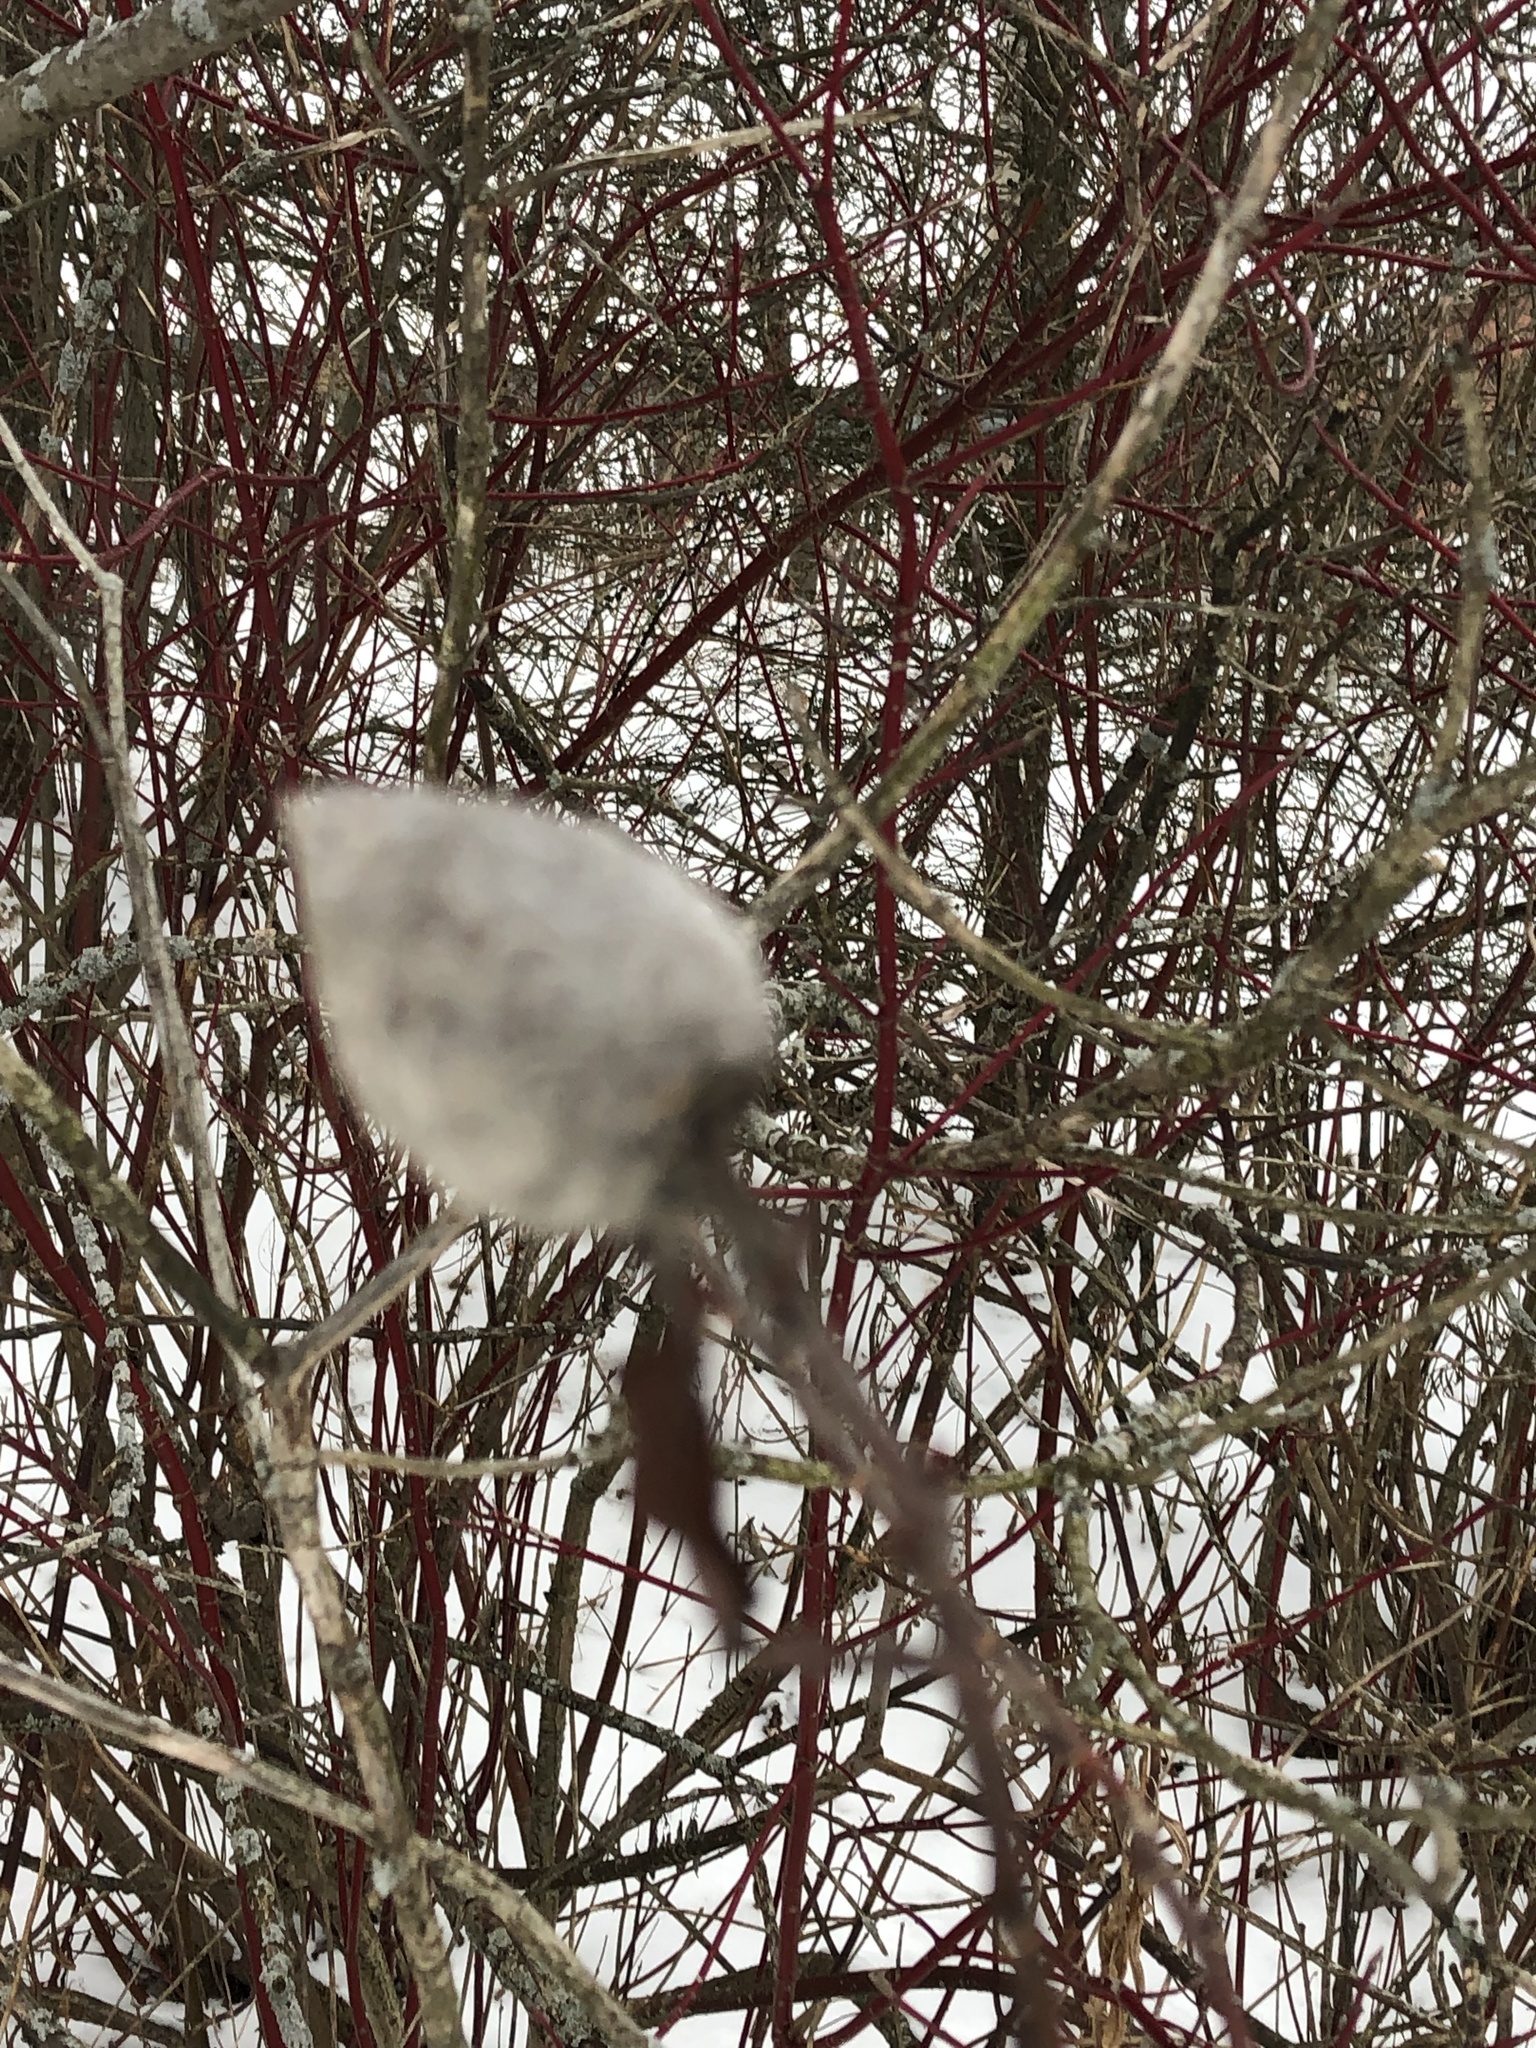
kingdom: Animalia
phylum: Arthropoda
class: Insecta
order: Diptera
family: Cecidomyiidae
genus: Rabdophaga
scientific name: Rabdophaga strobiloides
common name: Willow pinecone gall midge
